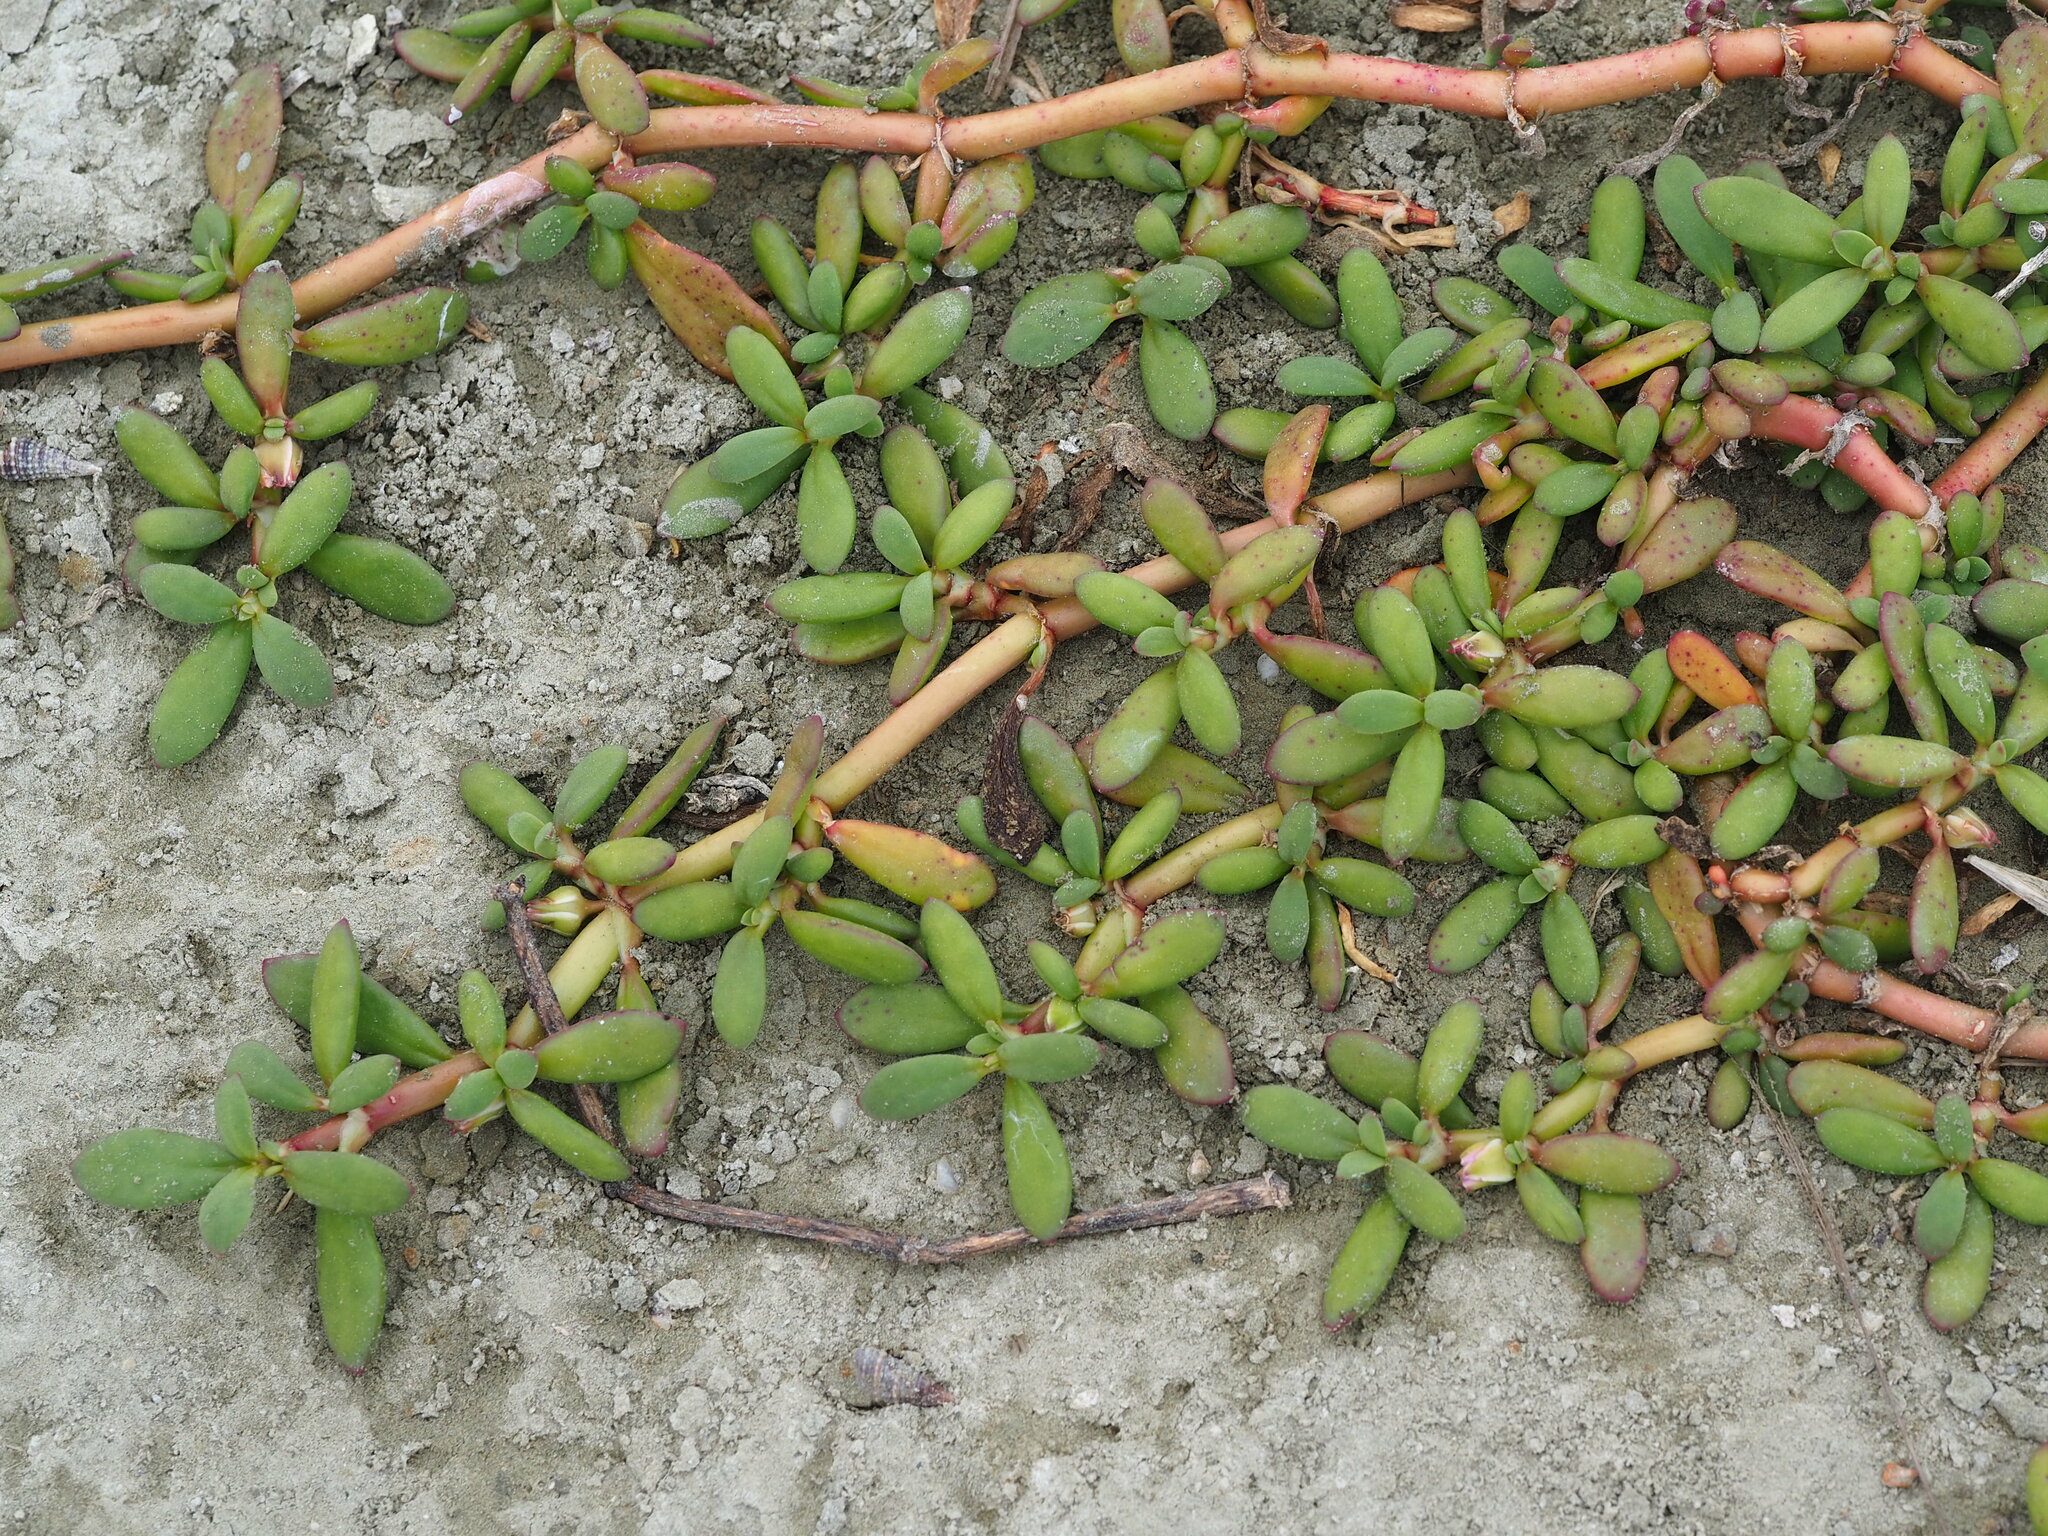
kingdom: Plantae
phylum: Tracheophyta
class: Magnoliopsida
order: Caryophyllales
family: Aizoaceae
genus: Sesuvium
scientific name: Sesuvium portulacastrum
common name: Sea-purslane
